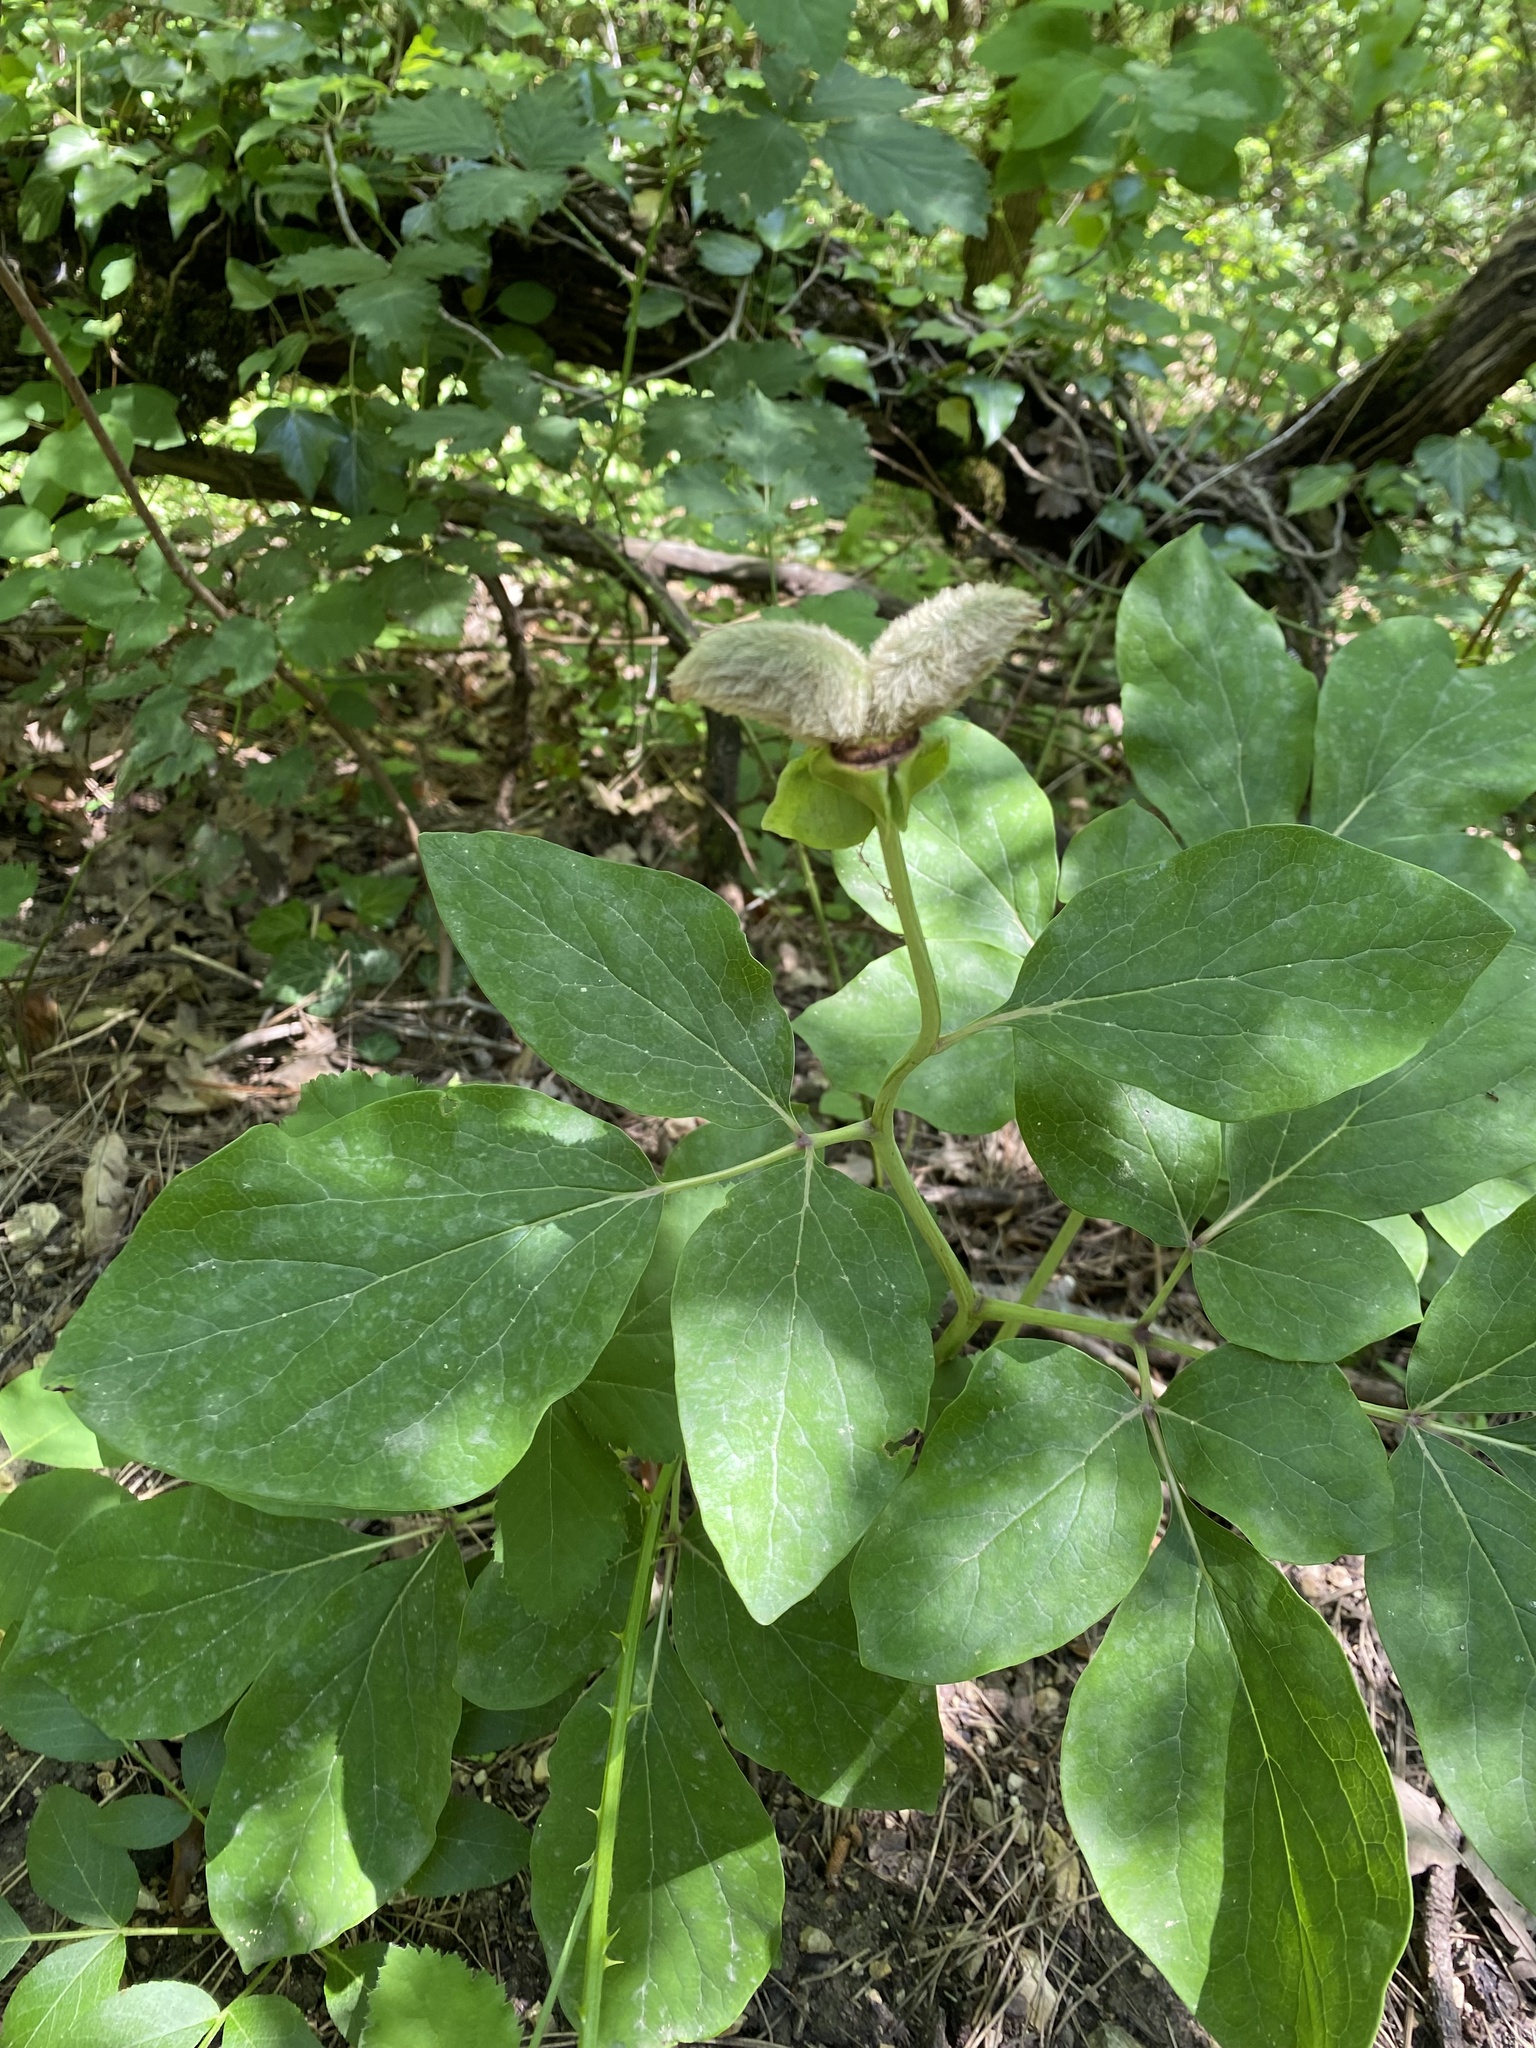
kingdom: Plantae
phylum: Tracheophyta
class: Magnoliopsida
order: Saxifragales
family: Paeoniaceae
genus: Paeonia
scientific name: Paeonia caucasica
